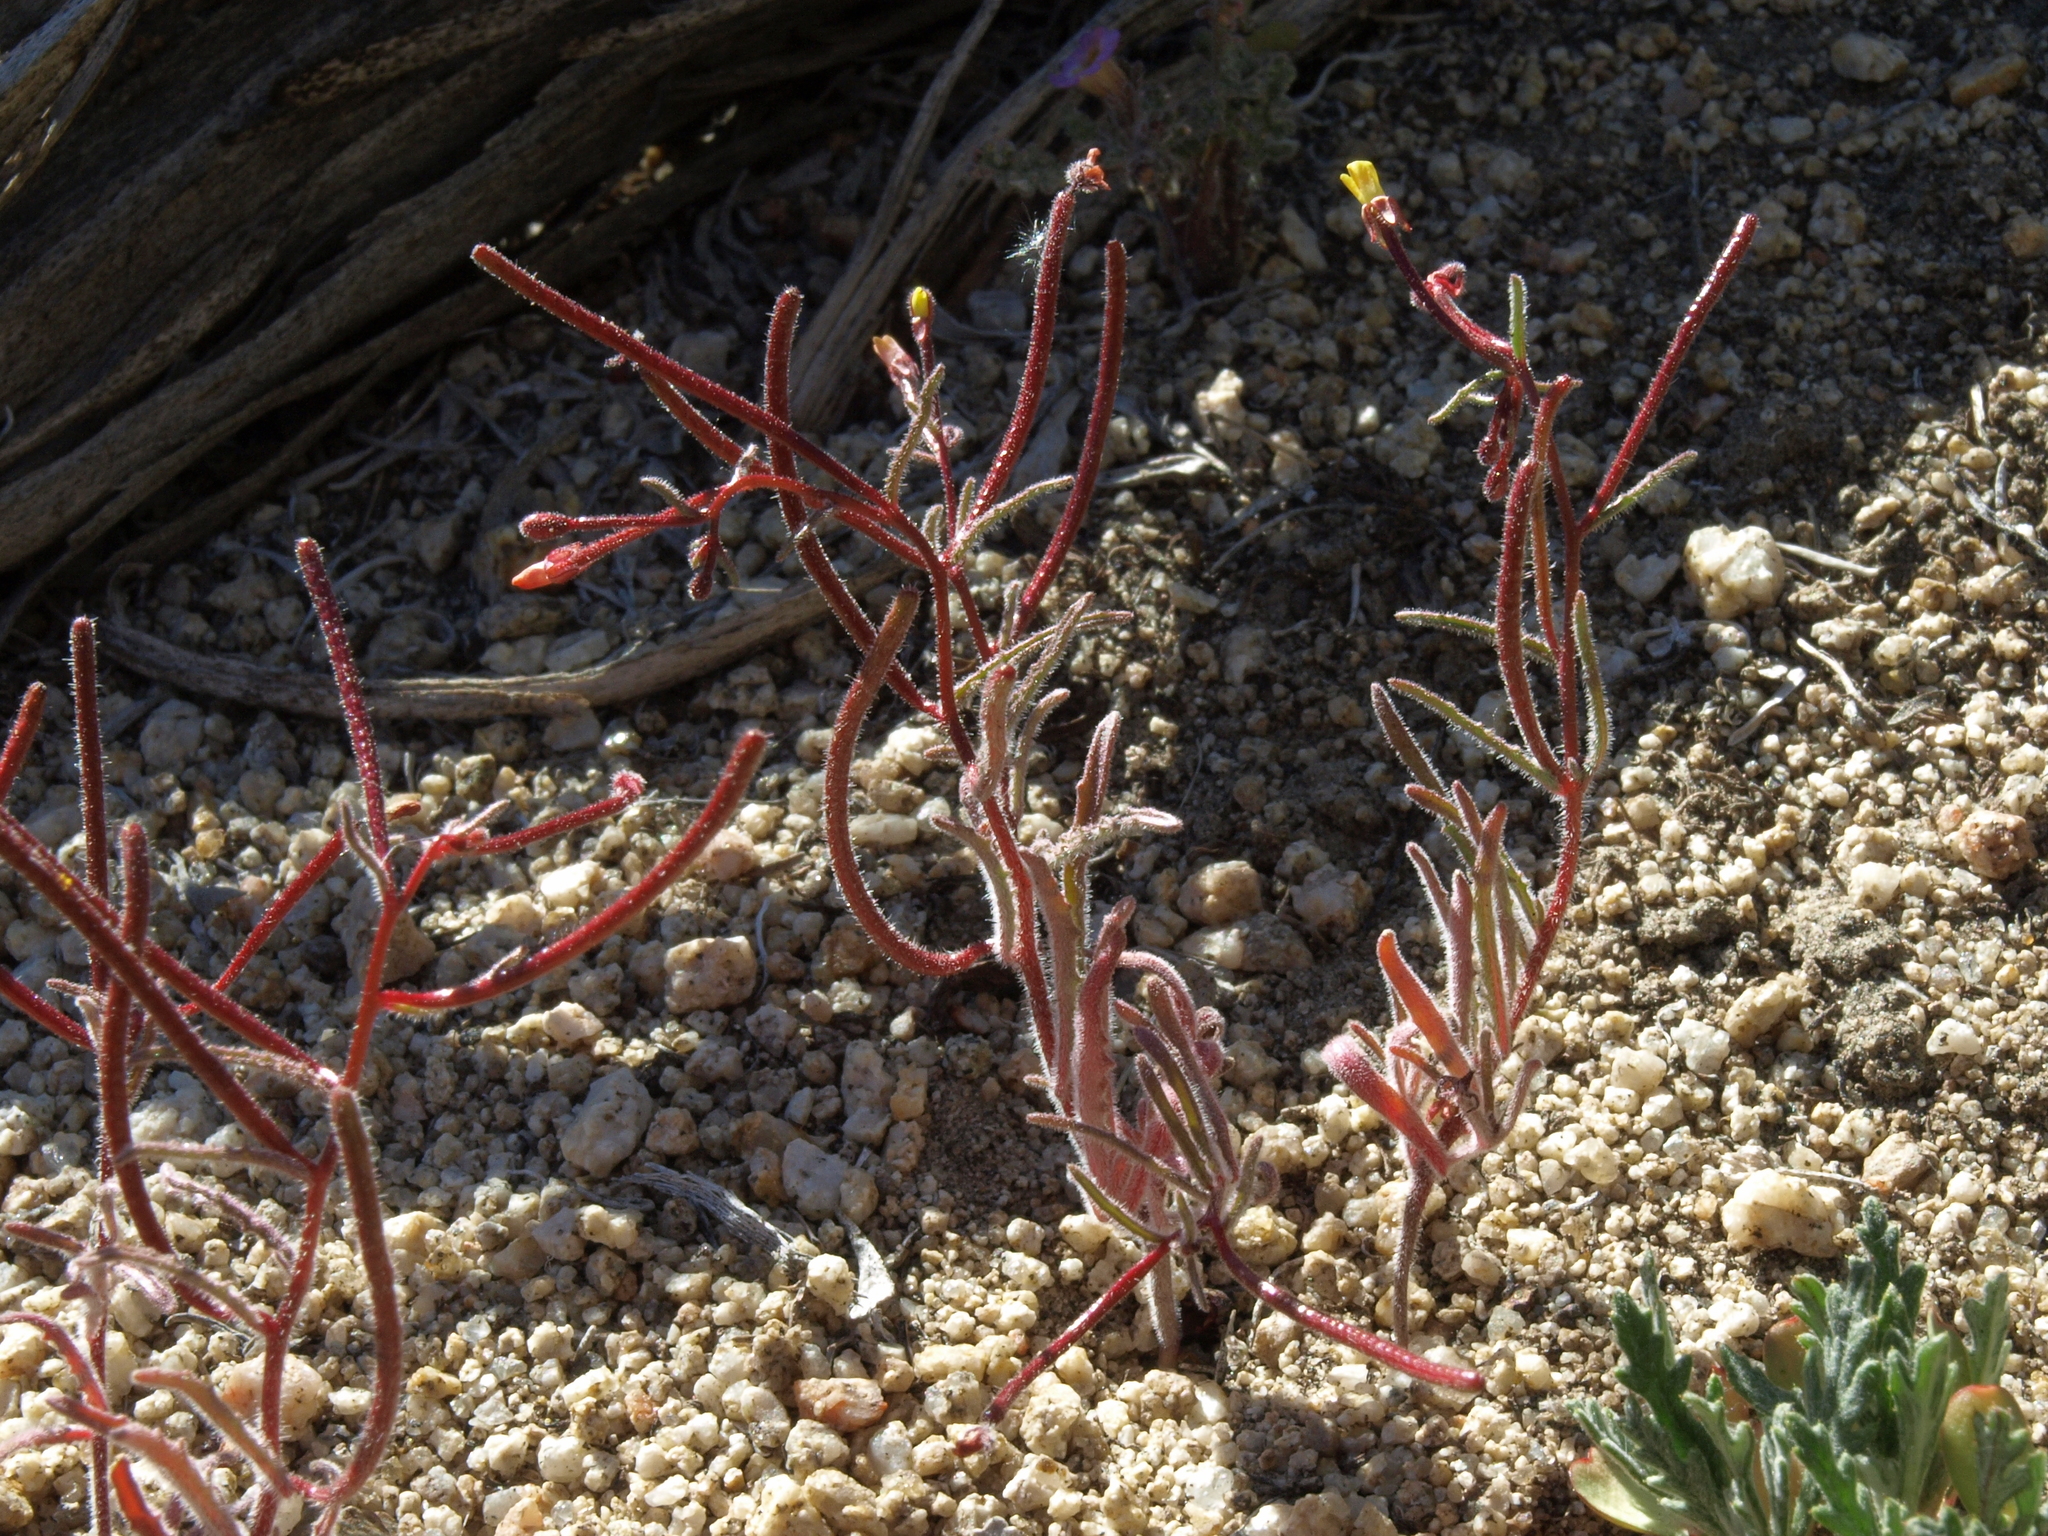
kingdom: Plantae
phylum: Tracheophyta
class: Magnoliopsida
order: Myrtales
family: Onagraceae
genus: Camissonia
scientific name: Camissonia pusilla
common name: Obscure camissonia
